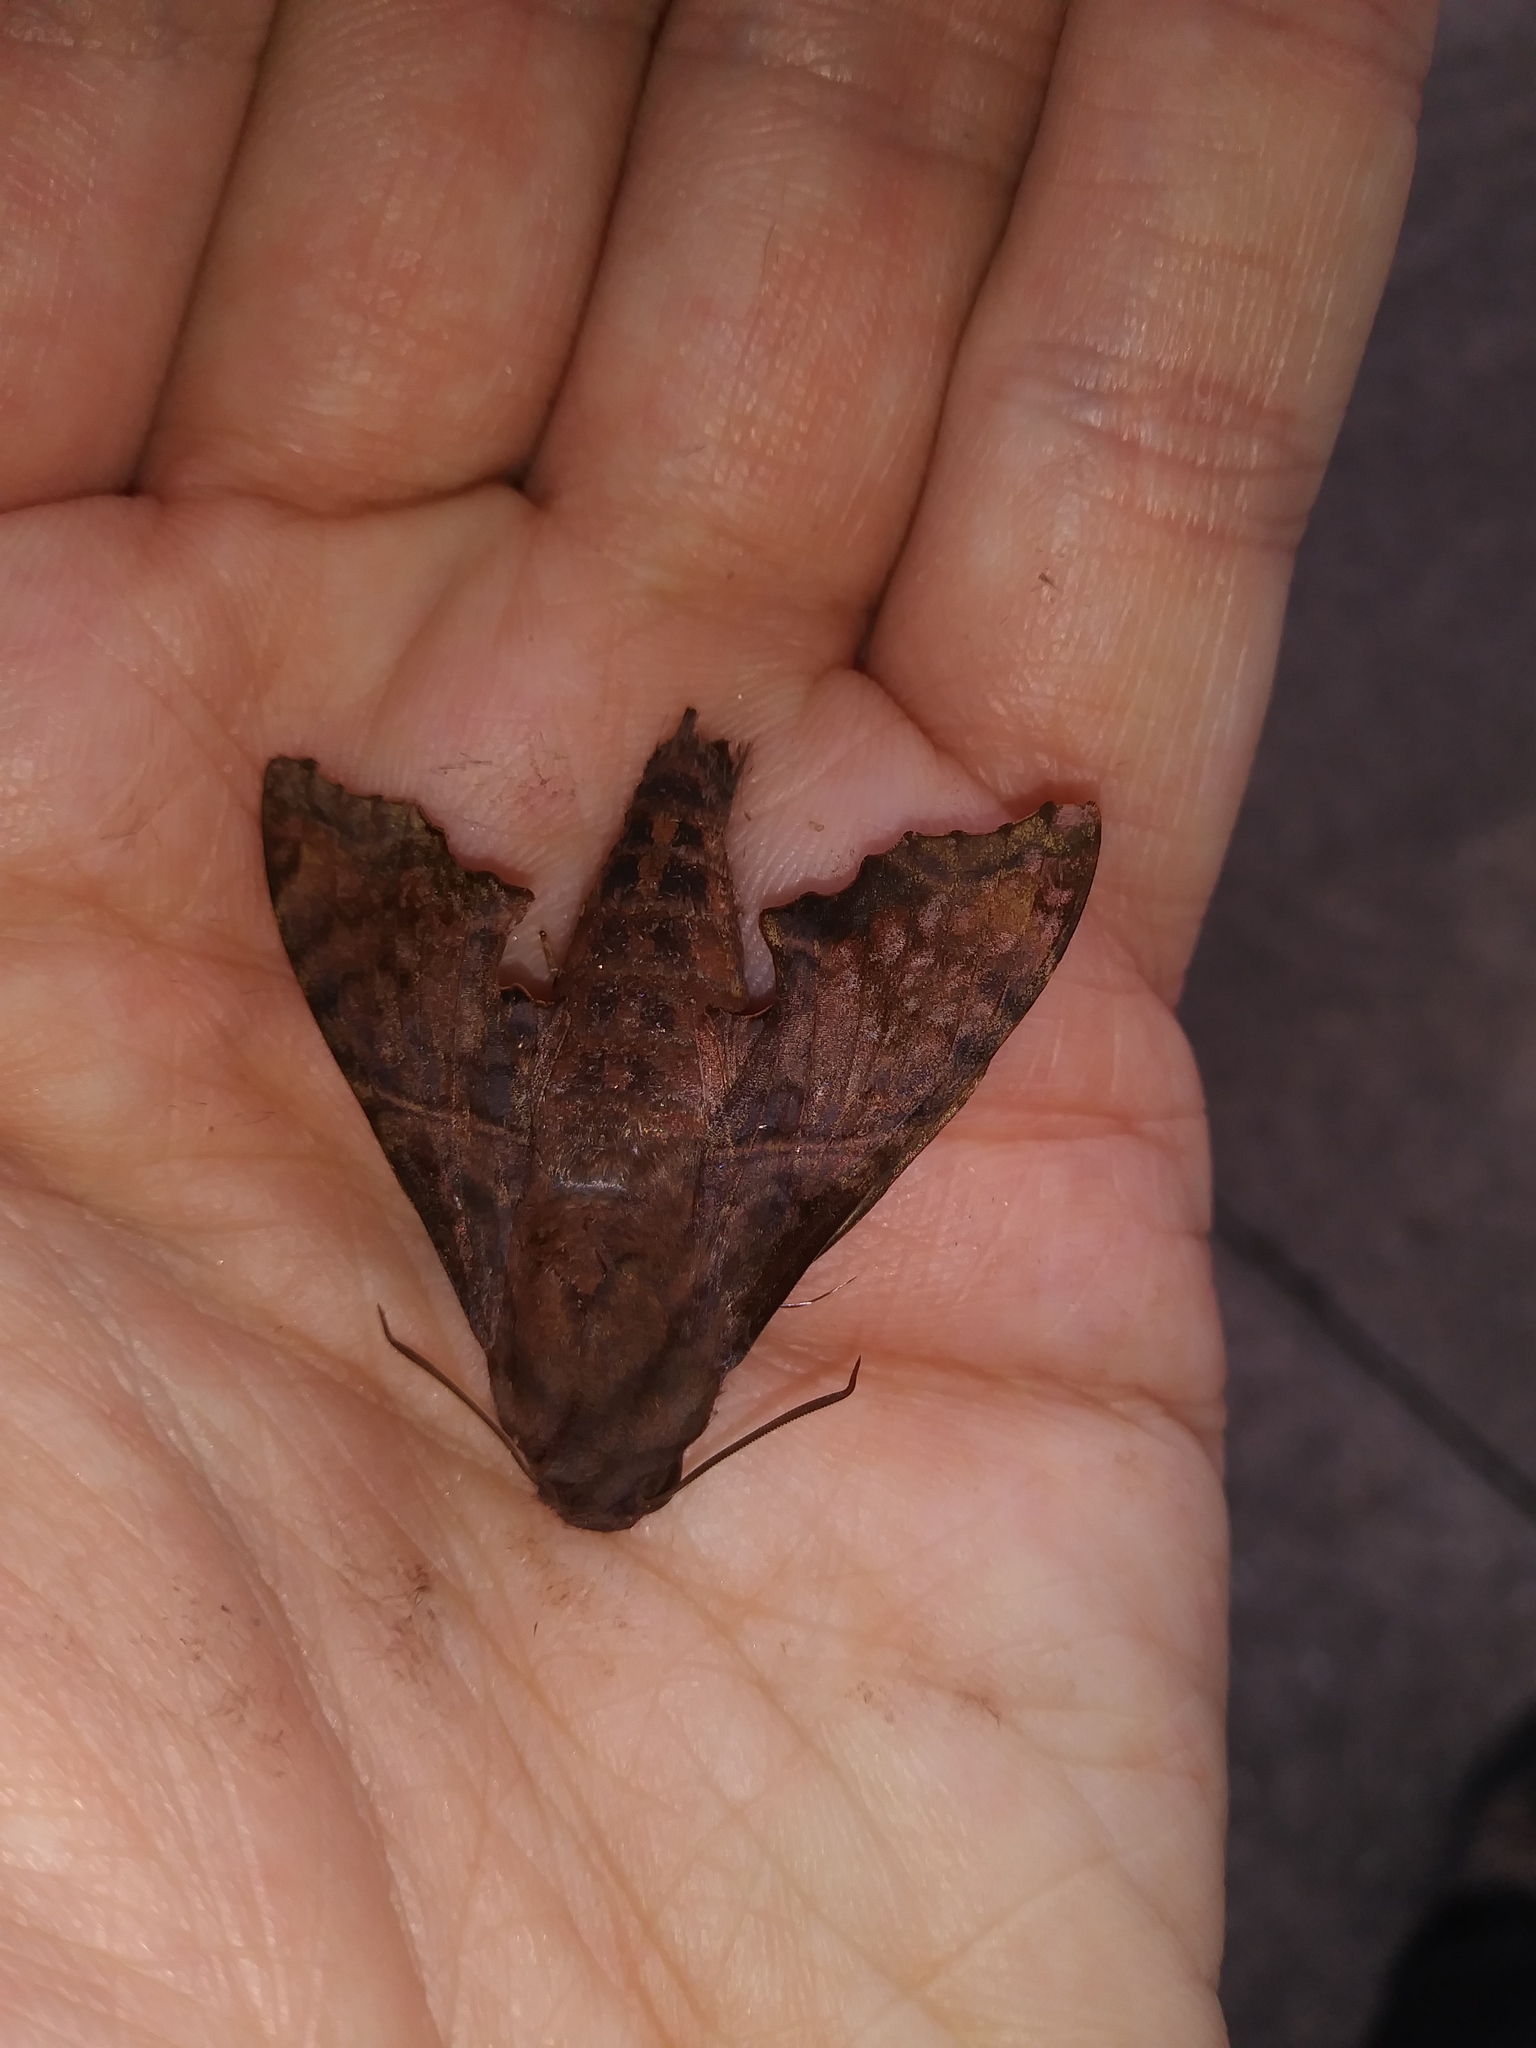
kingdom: Animalia
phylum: Arthropoda
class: Insecta
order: Lepidoptera
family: Sphingidae
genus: Enyo
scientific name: Enyo lugubris
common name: Mournful sphinx
